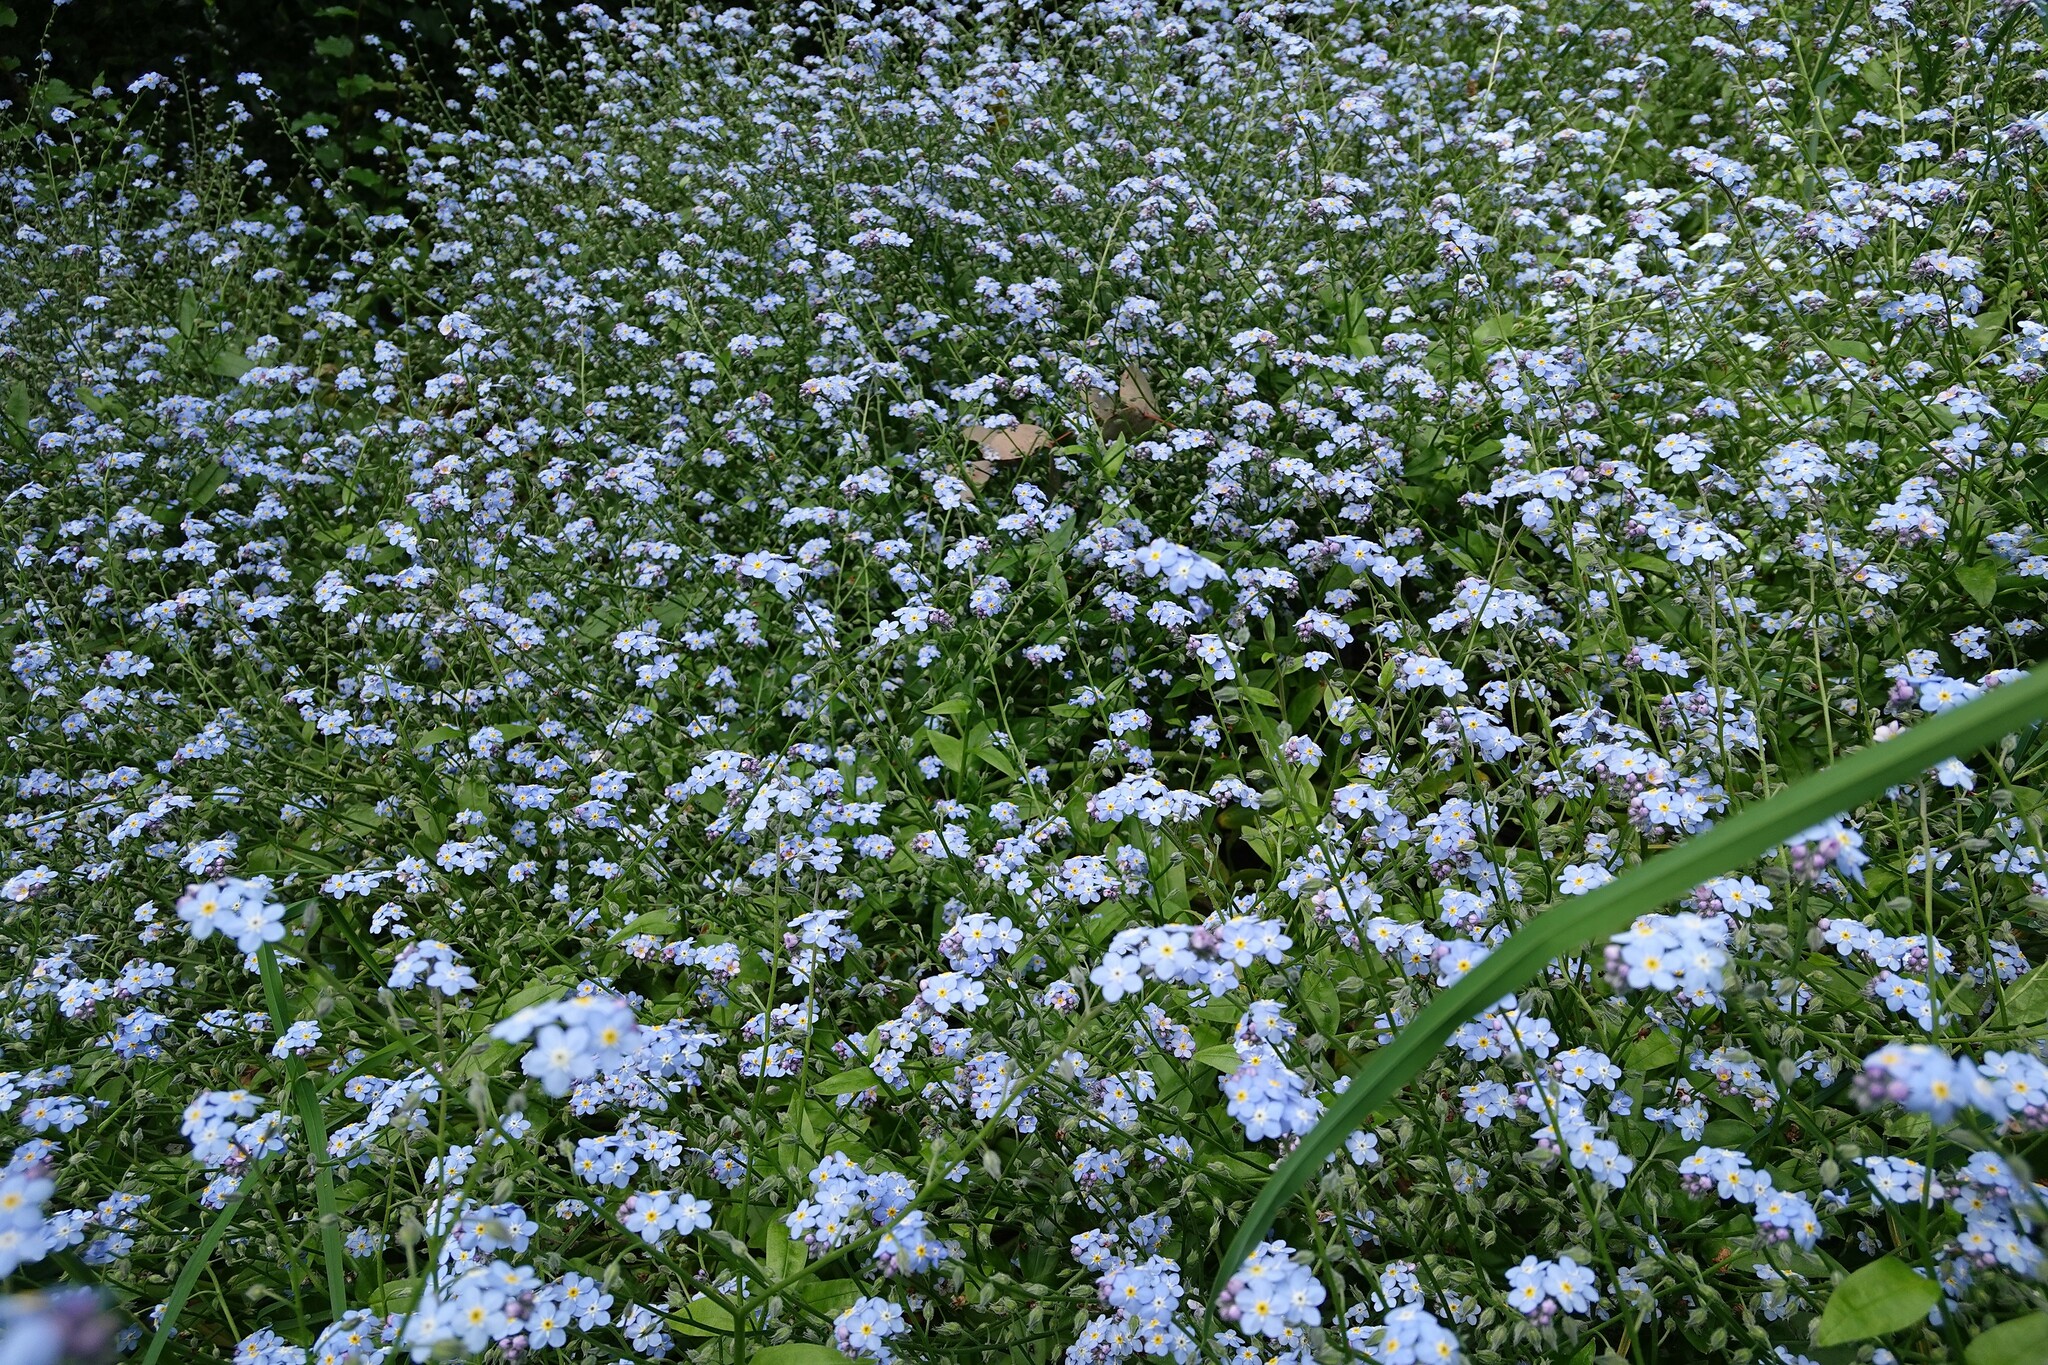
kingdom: Plantae
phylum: Tracheophyta
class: Magnoliopsida
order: Boraginales
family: Boraginaceae
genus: Myosotis
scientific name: Myosotis sylvatica
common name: Wood forget-me-not
